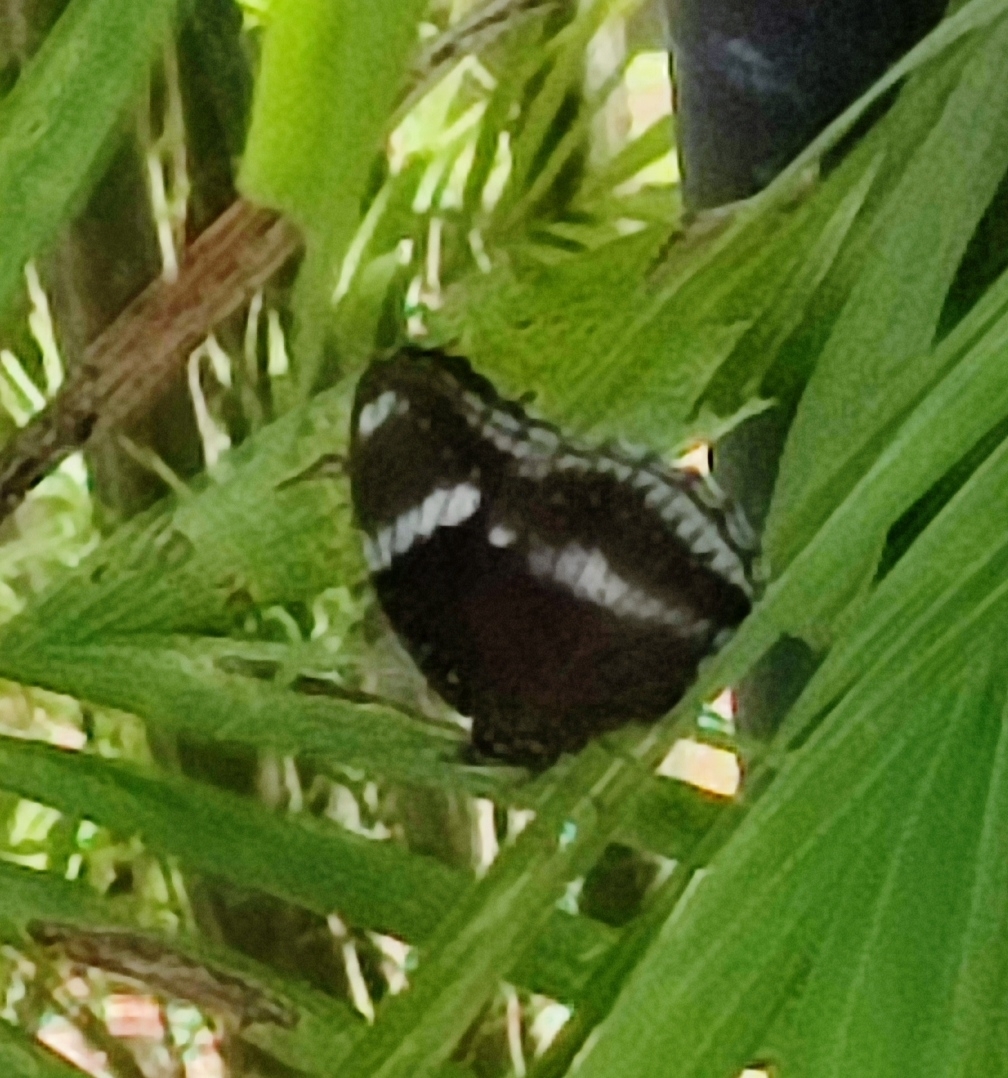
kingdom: Animalia
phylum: Arthropoda
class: Insecta
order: Lepidoptera
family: Nymphalidae
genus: Hypolimnas
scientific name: Hypolimnas bolina
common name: Great eggfly
